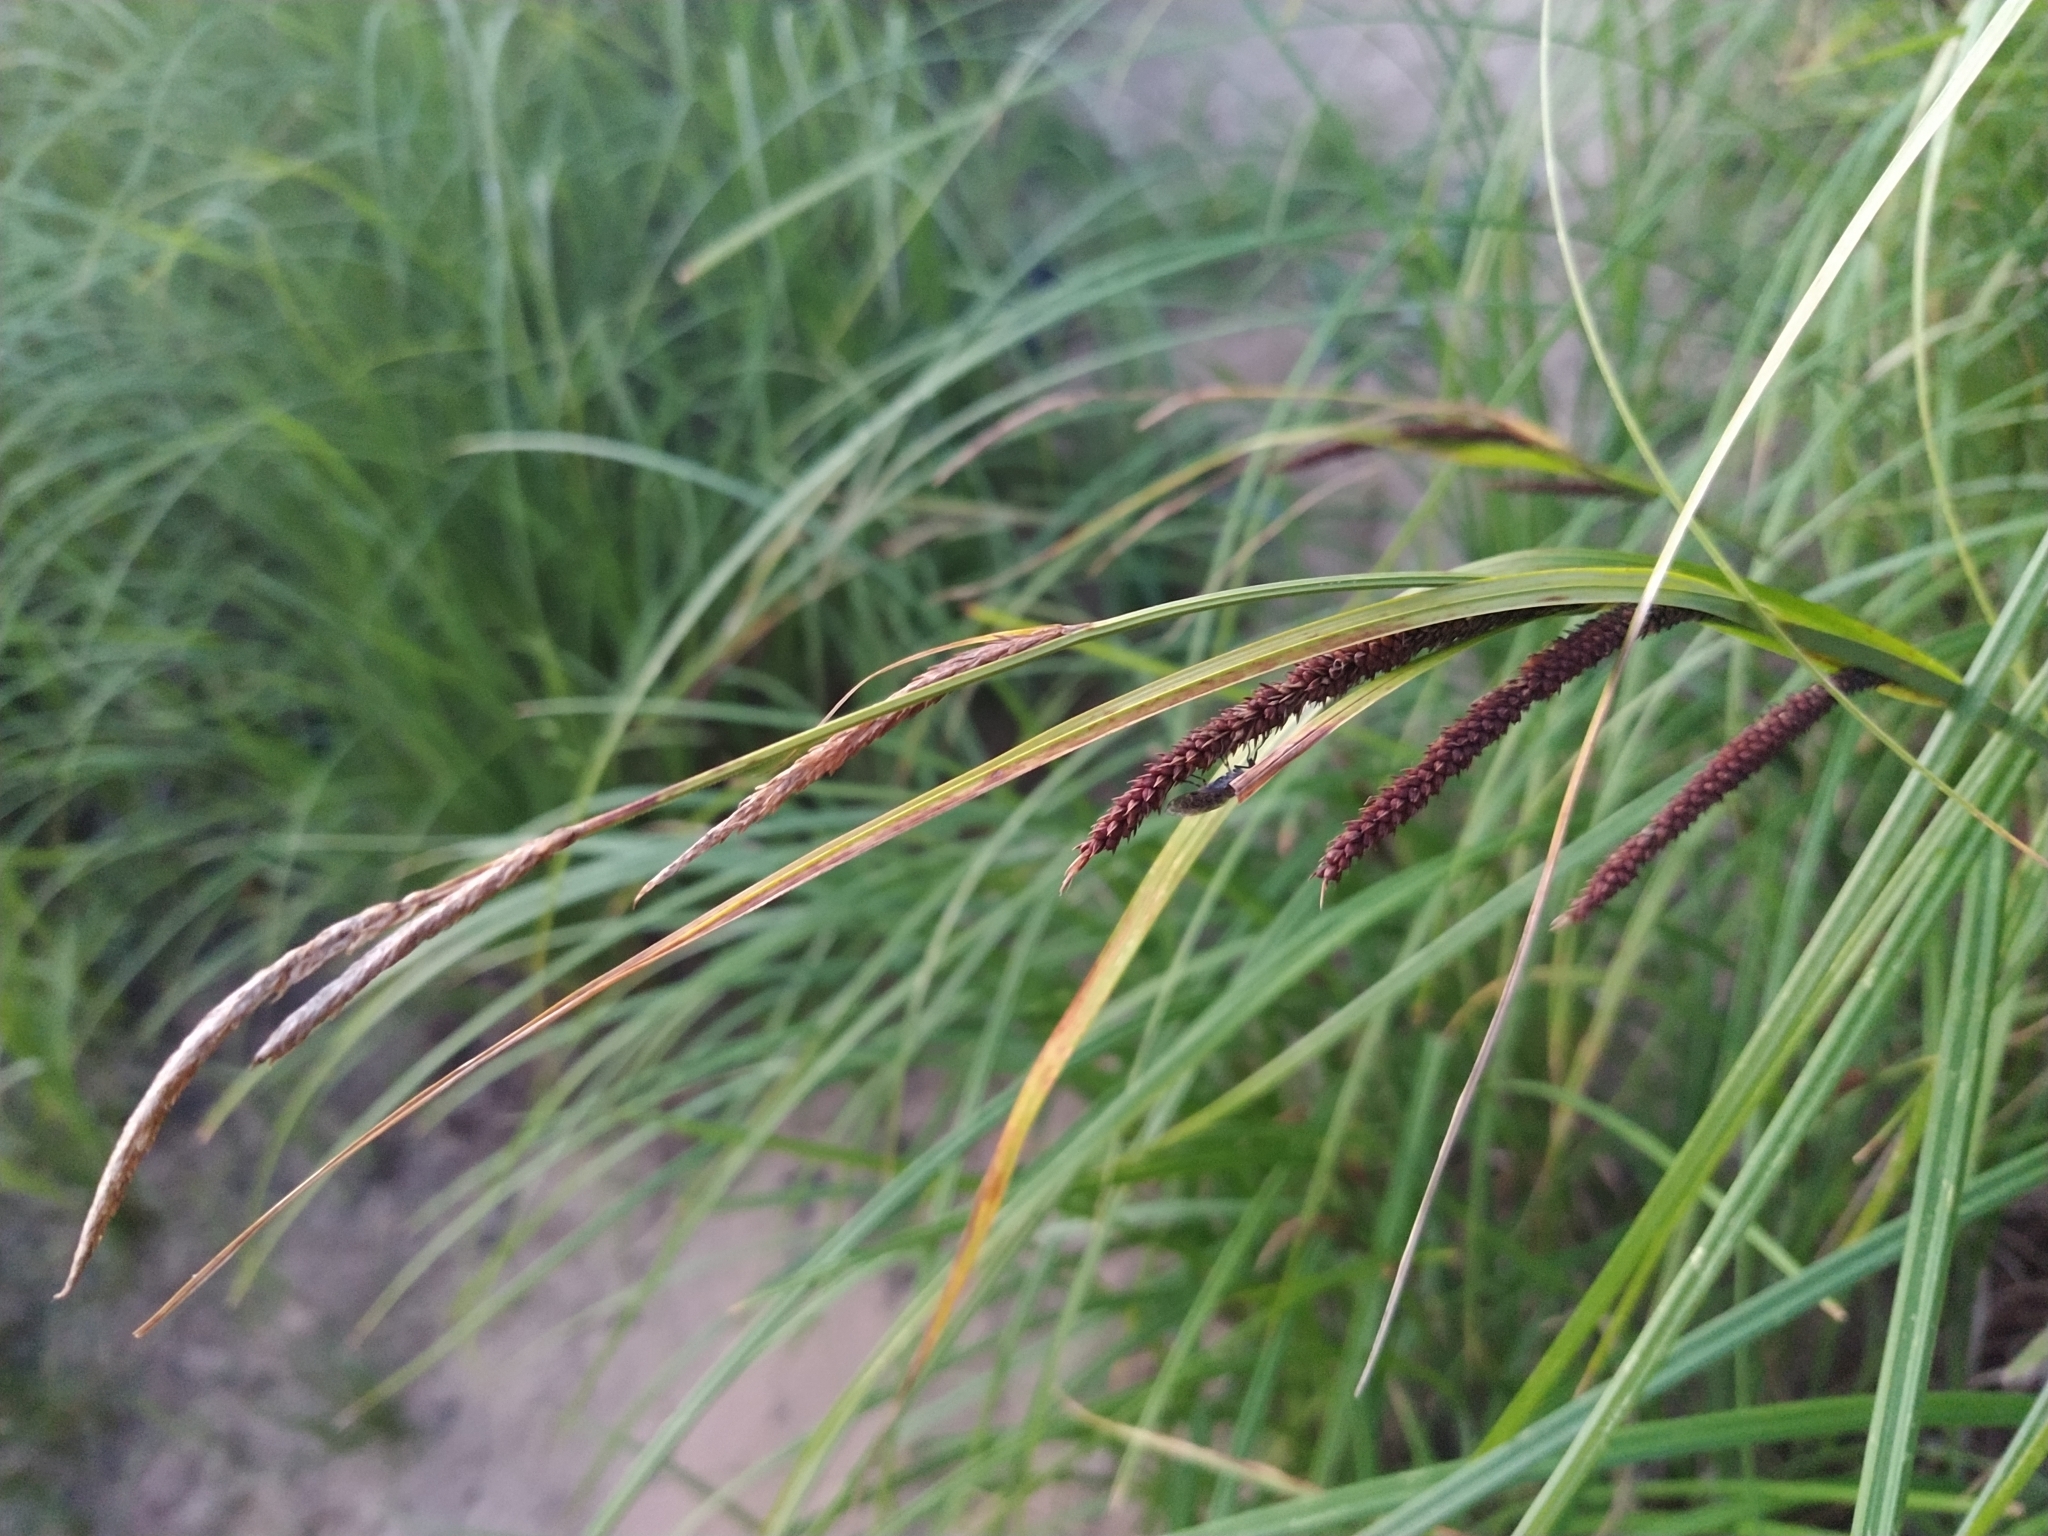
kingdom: Plantae
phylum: Tracheophyta
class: Liliopsida
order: Poales
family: Cyperaceae
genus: Carex
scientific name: Carex acuta
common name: Slender tufted-sedge
